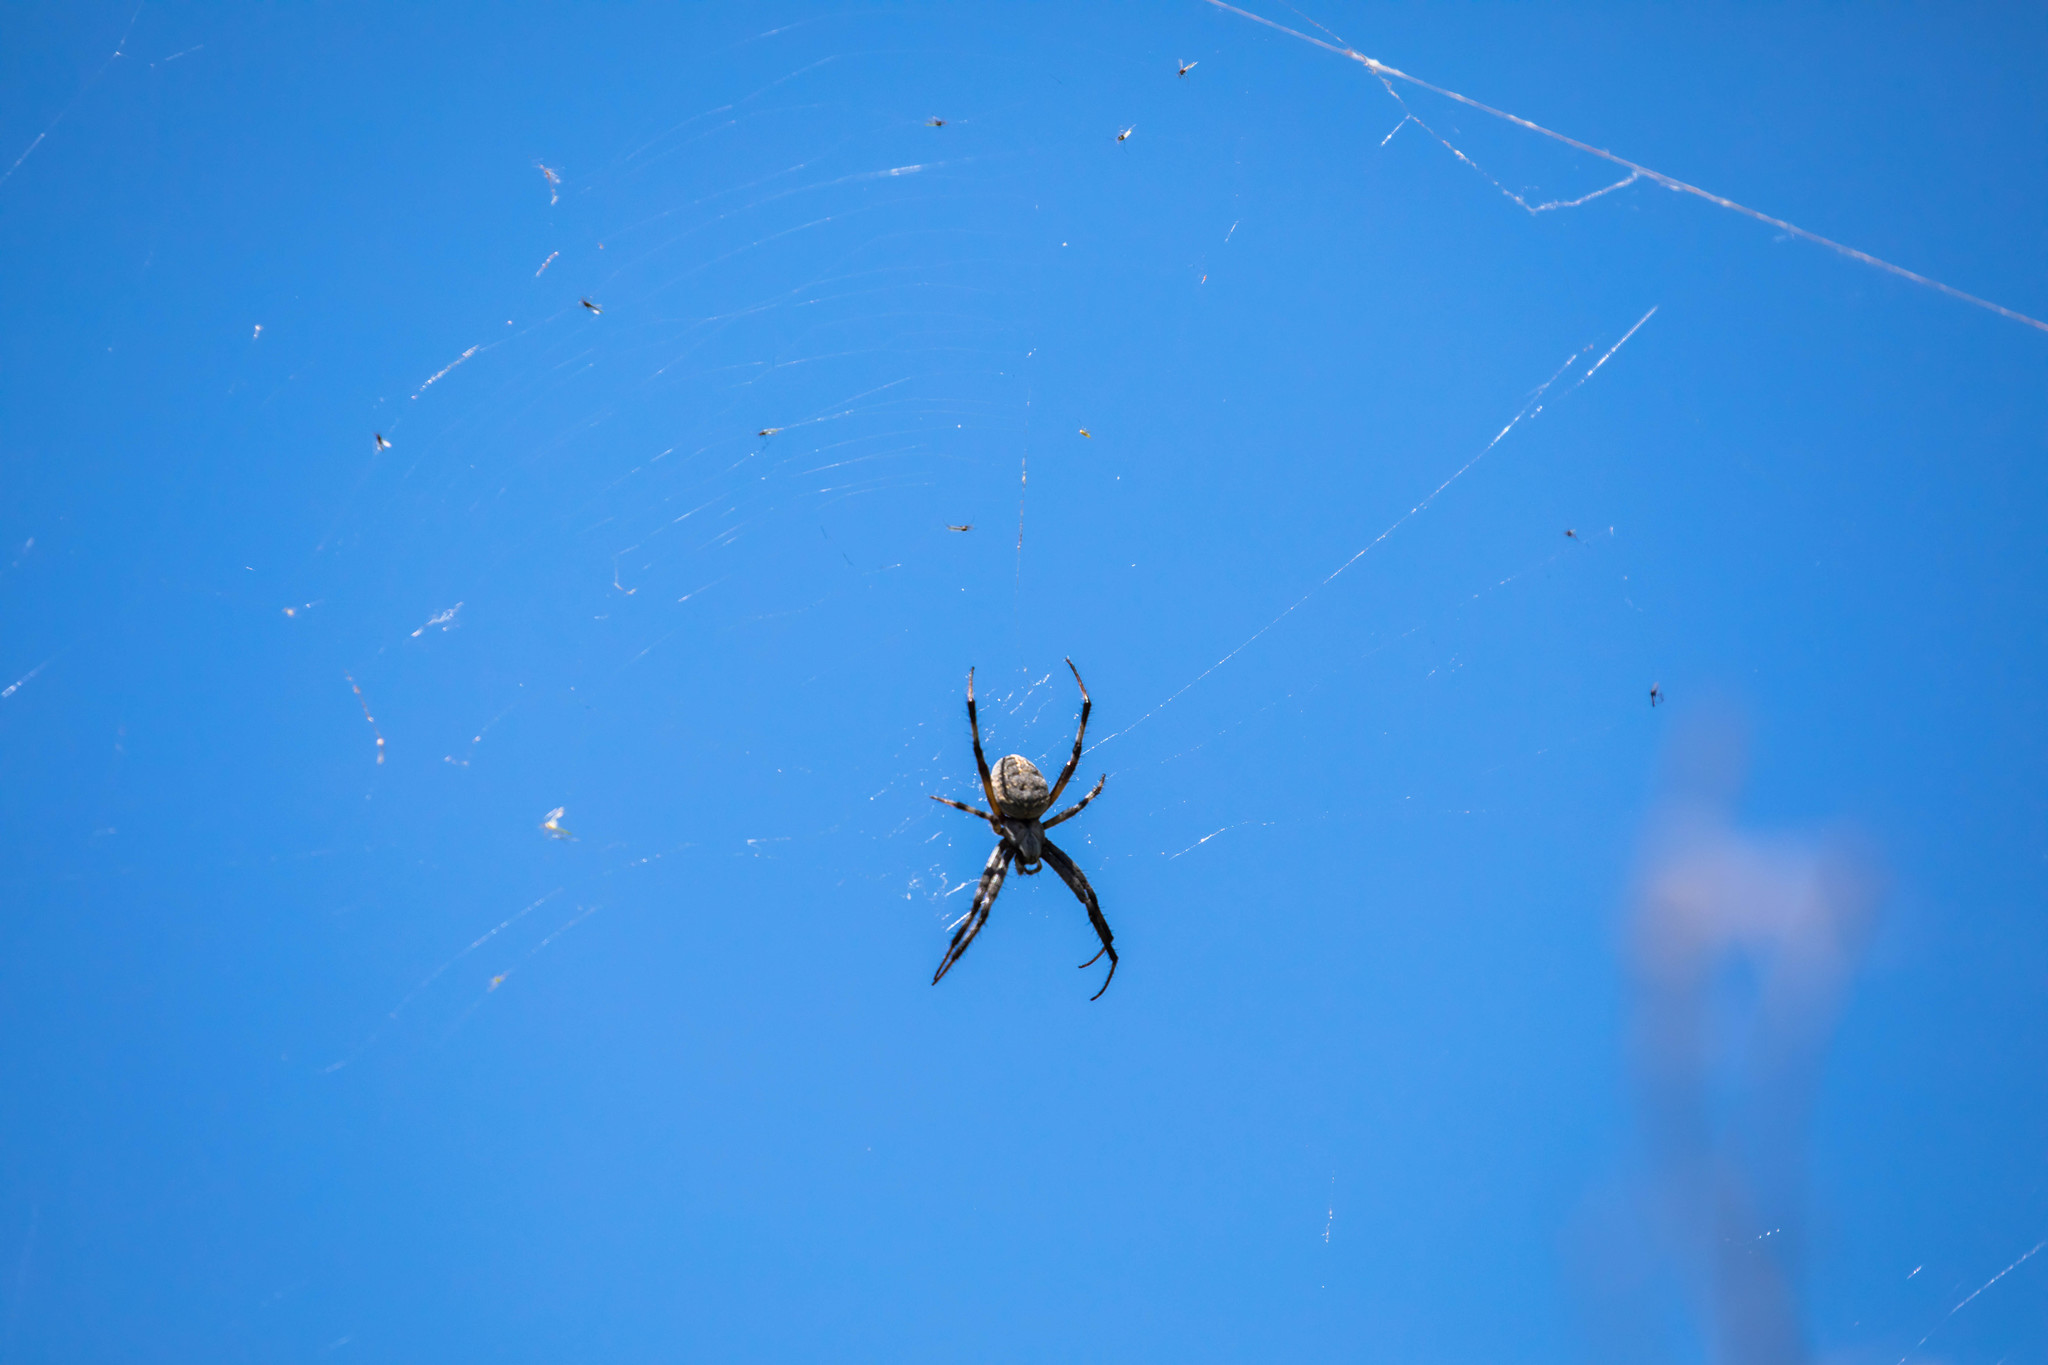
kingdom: Animalia
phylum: Arthropoda
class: Arachnida
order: Araneae
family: Araneidae
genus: Neoscona
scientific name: Neoscona oaxacensis
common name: Orb weavers
